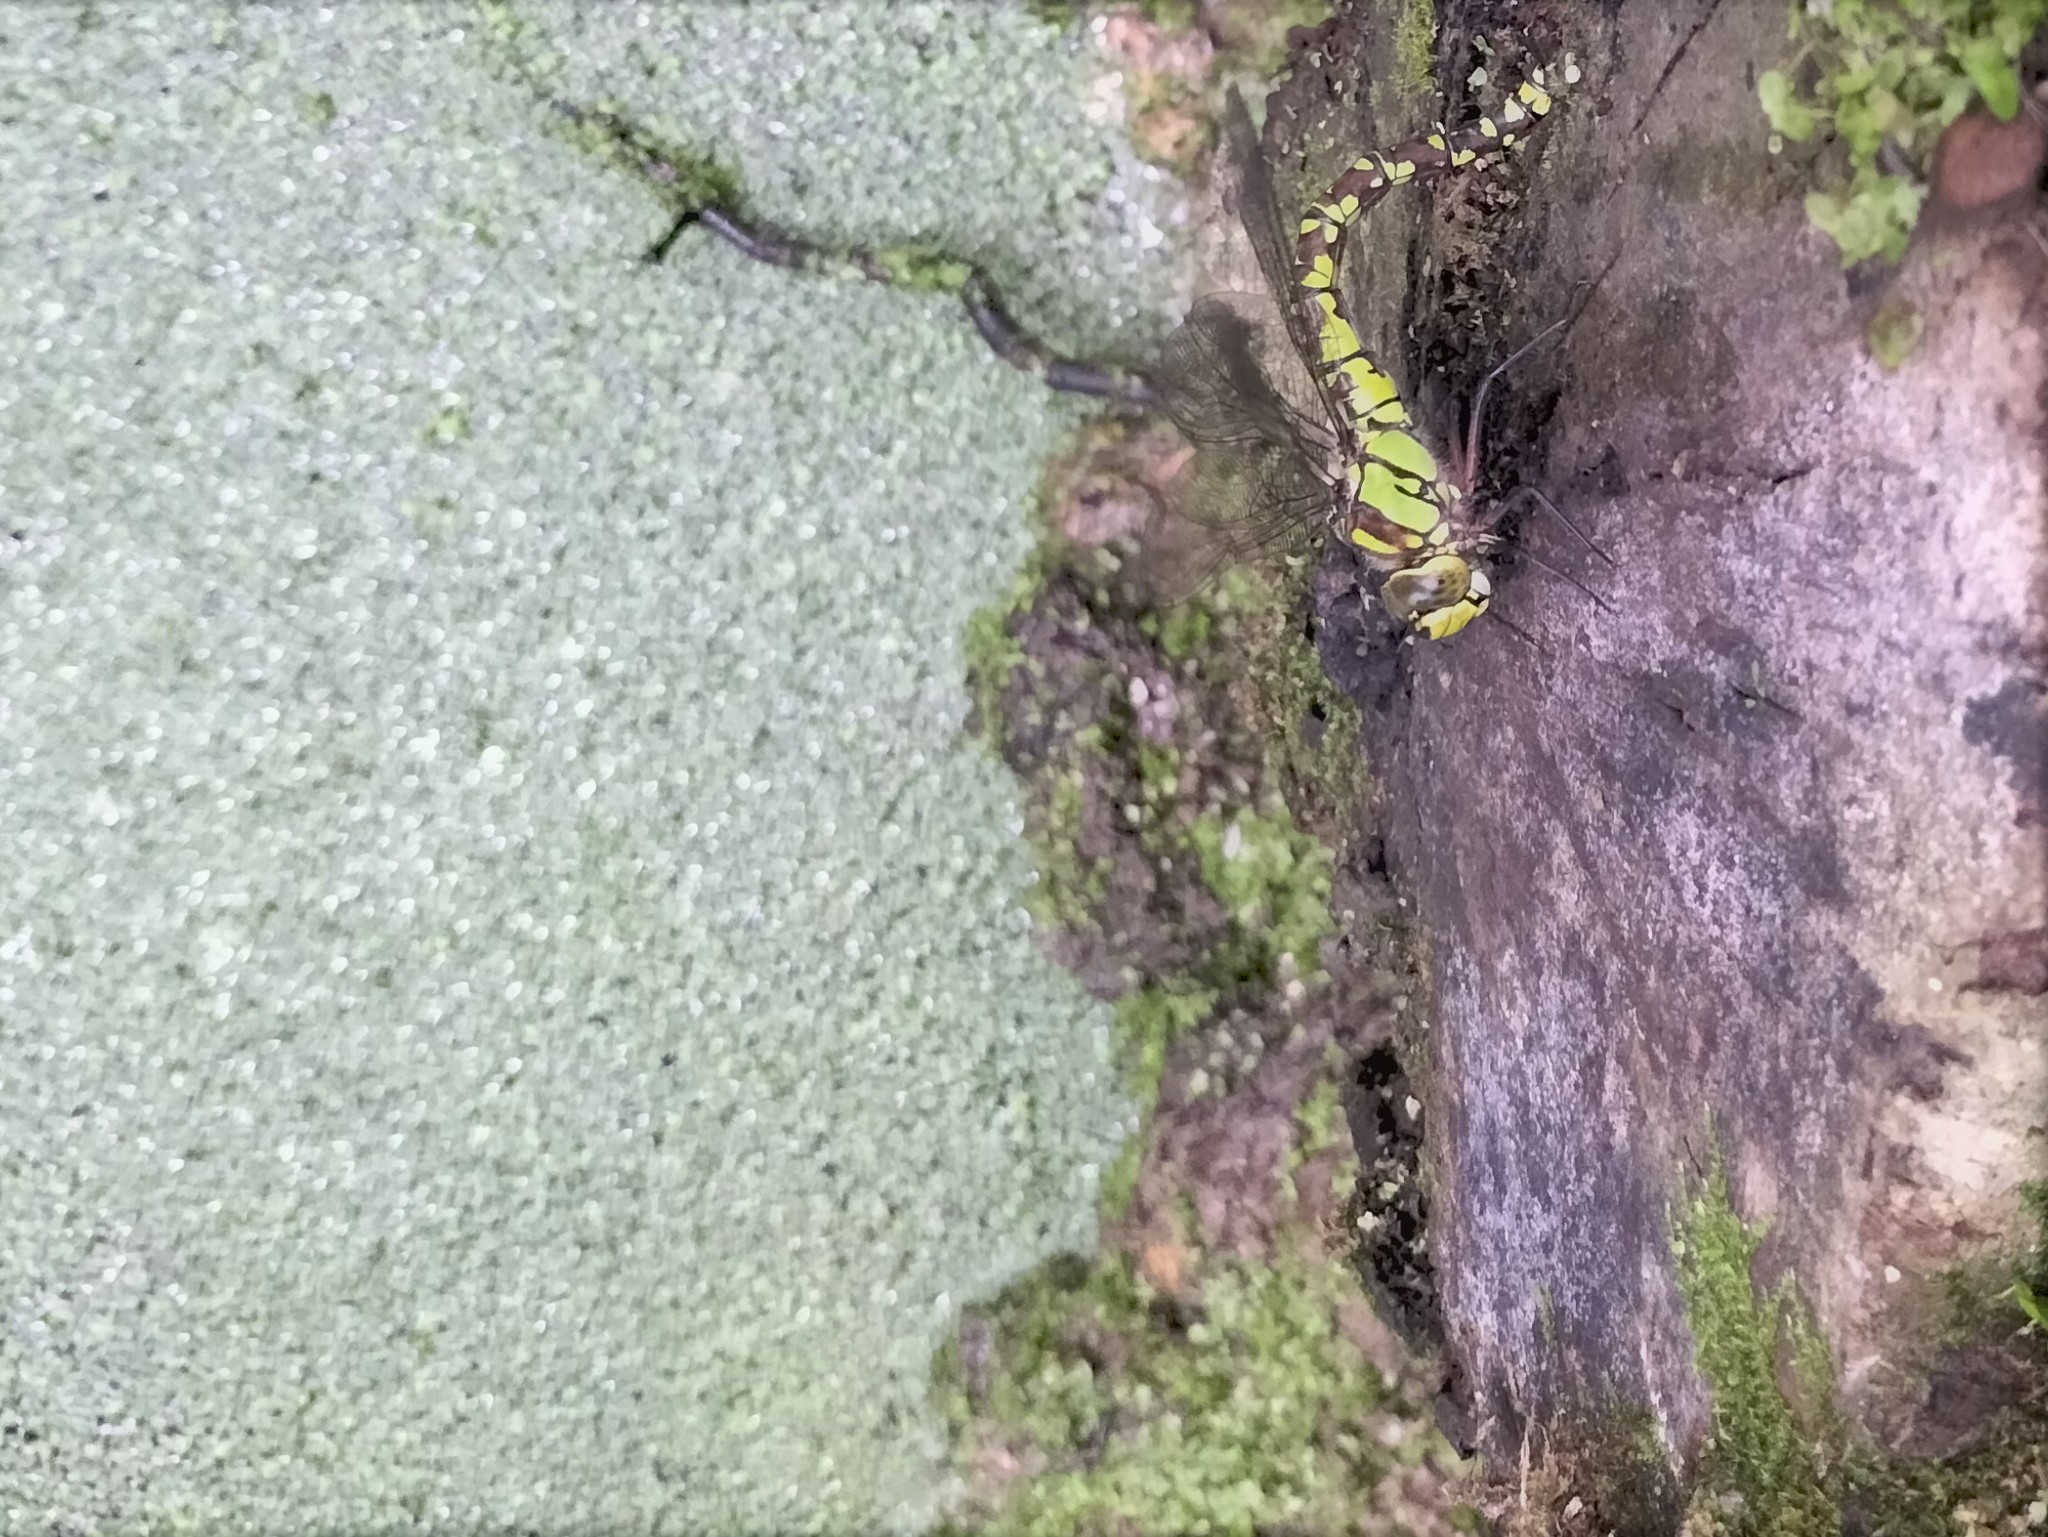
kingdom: Animalia
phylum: Arthropoda
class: Insecta
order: Odonata
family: Aeshnidae
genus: Aeshna
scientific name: Aeshna cyanea
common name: Southern hawker
